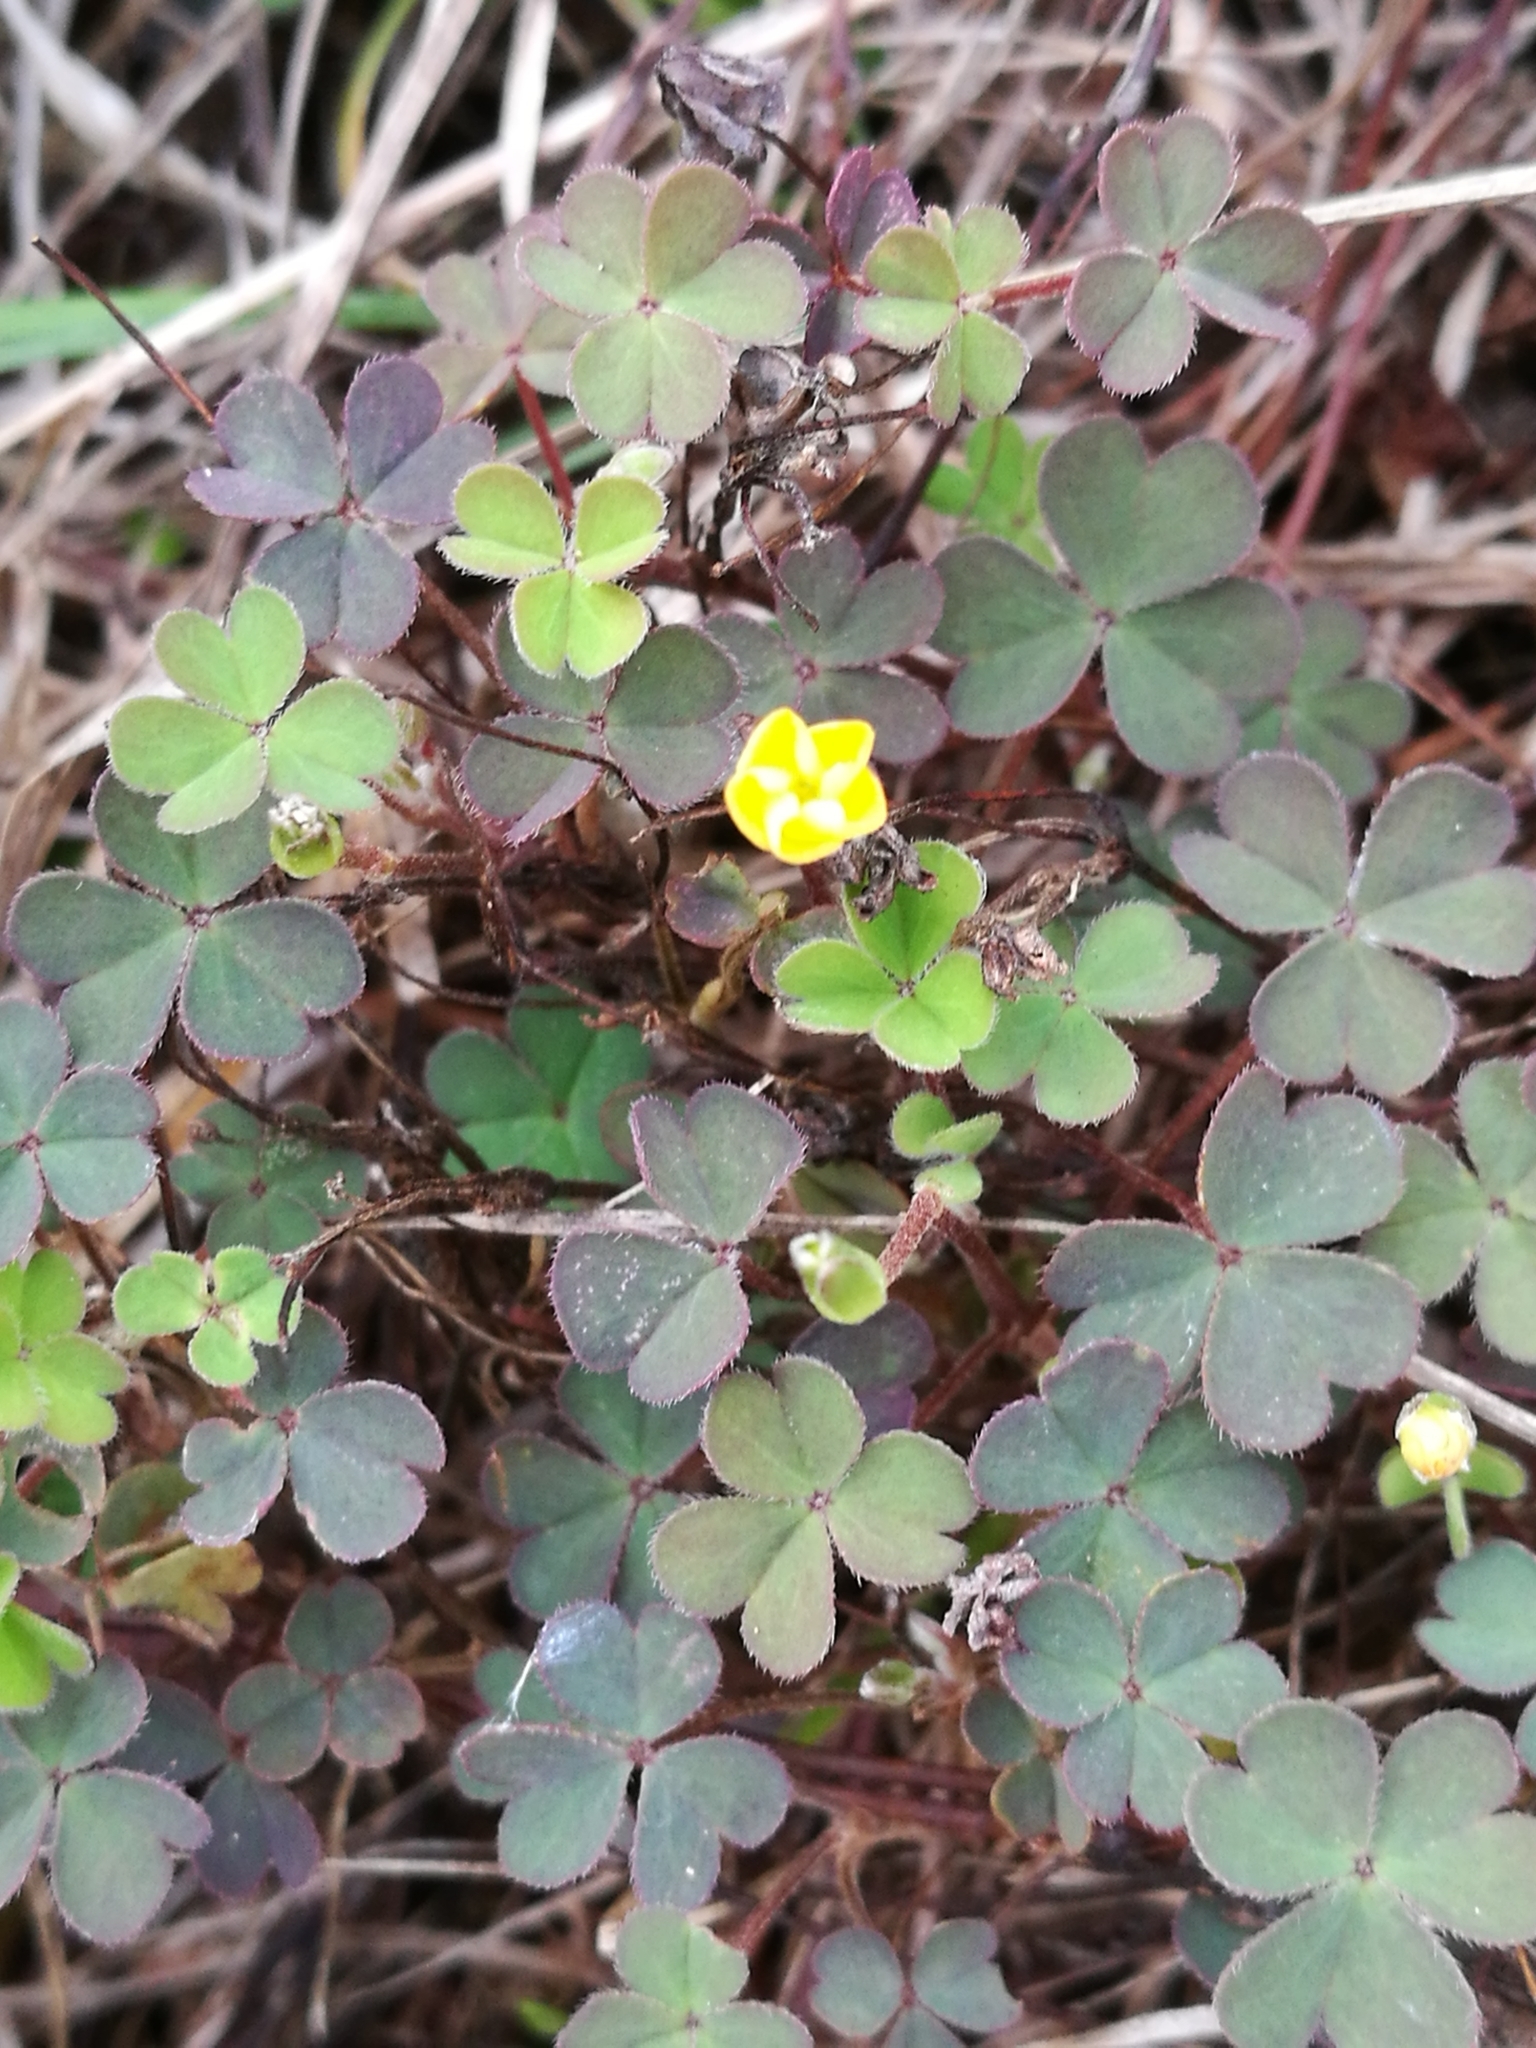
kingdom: Plantae
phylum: Tracheophyta
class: Magnoliopsida
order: Oxalidales
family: Oxalidaceae
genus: Oxalis
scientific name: Oxalis exilis
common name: Least yellow-sorrel
